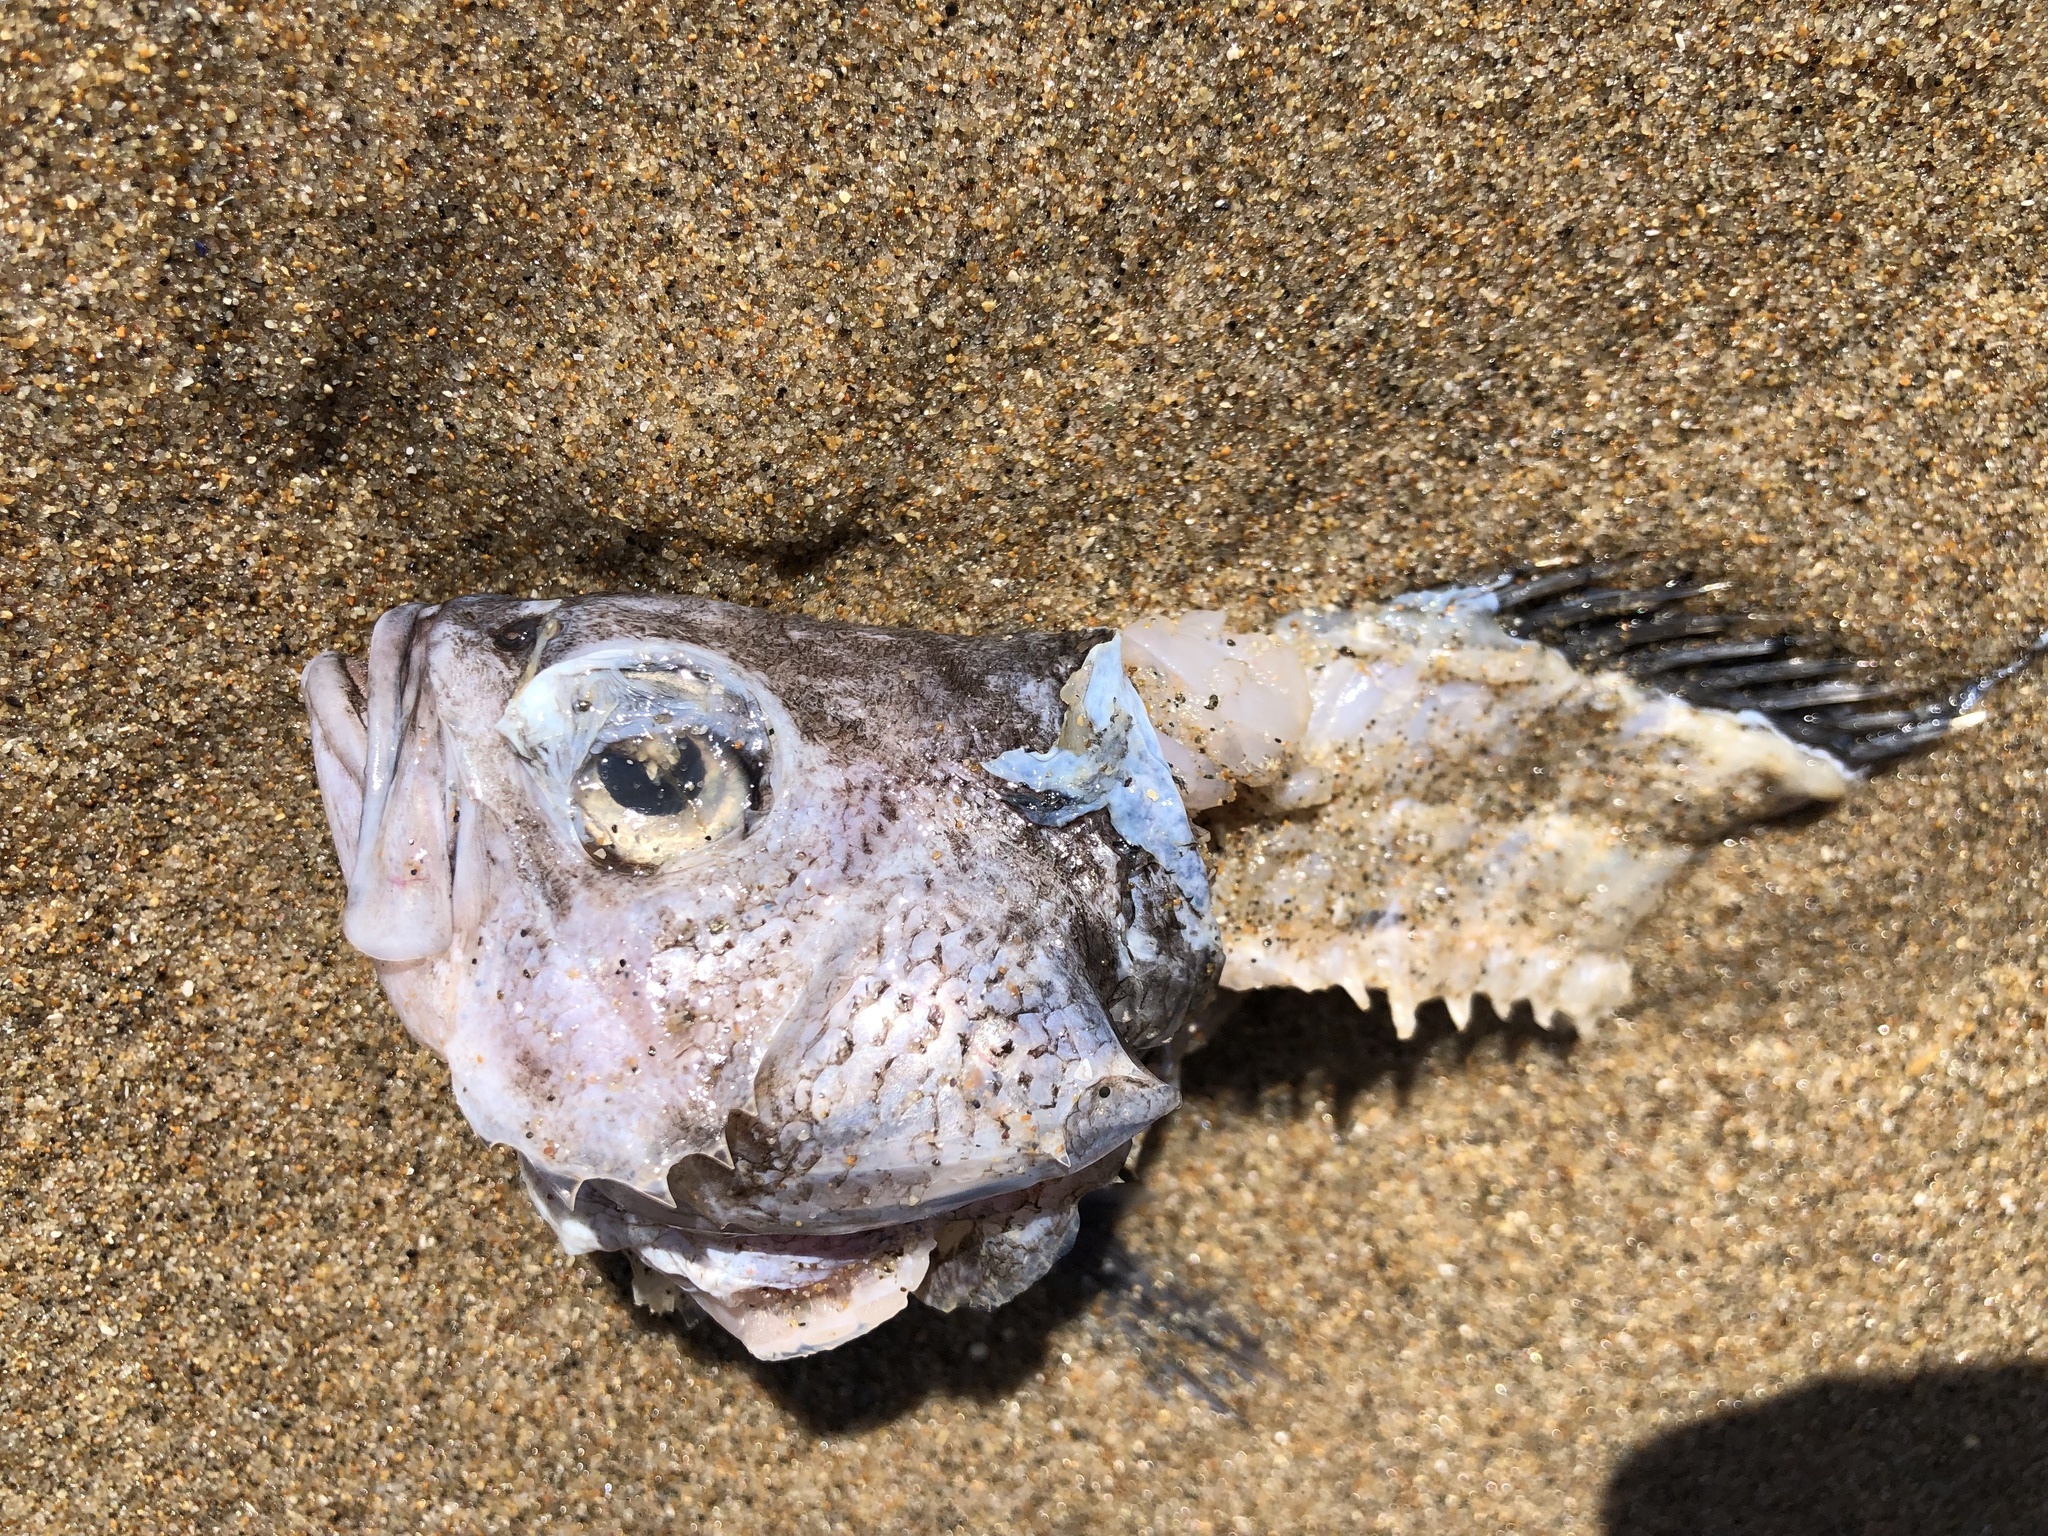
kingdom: Animalia
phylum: Chordata
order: Scorpaeniformes
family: Sebastidae
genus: Sebastes
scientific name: Sebastes mystinus
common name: Blue rockfish
